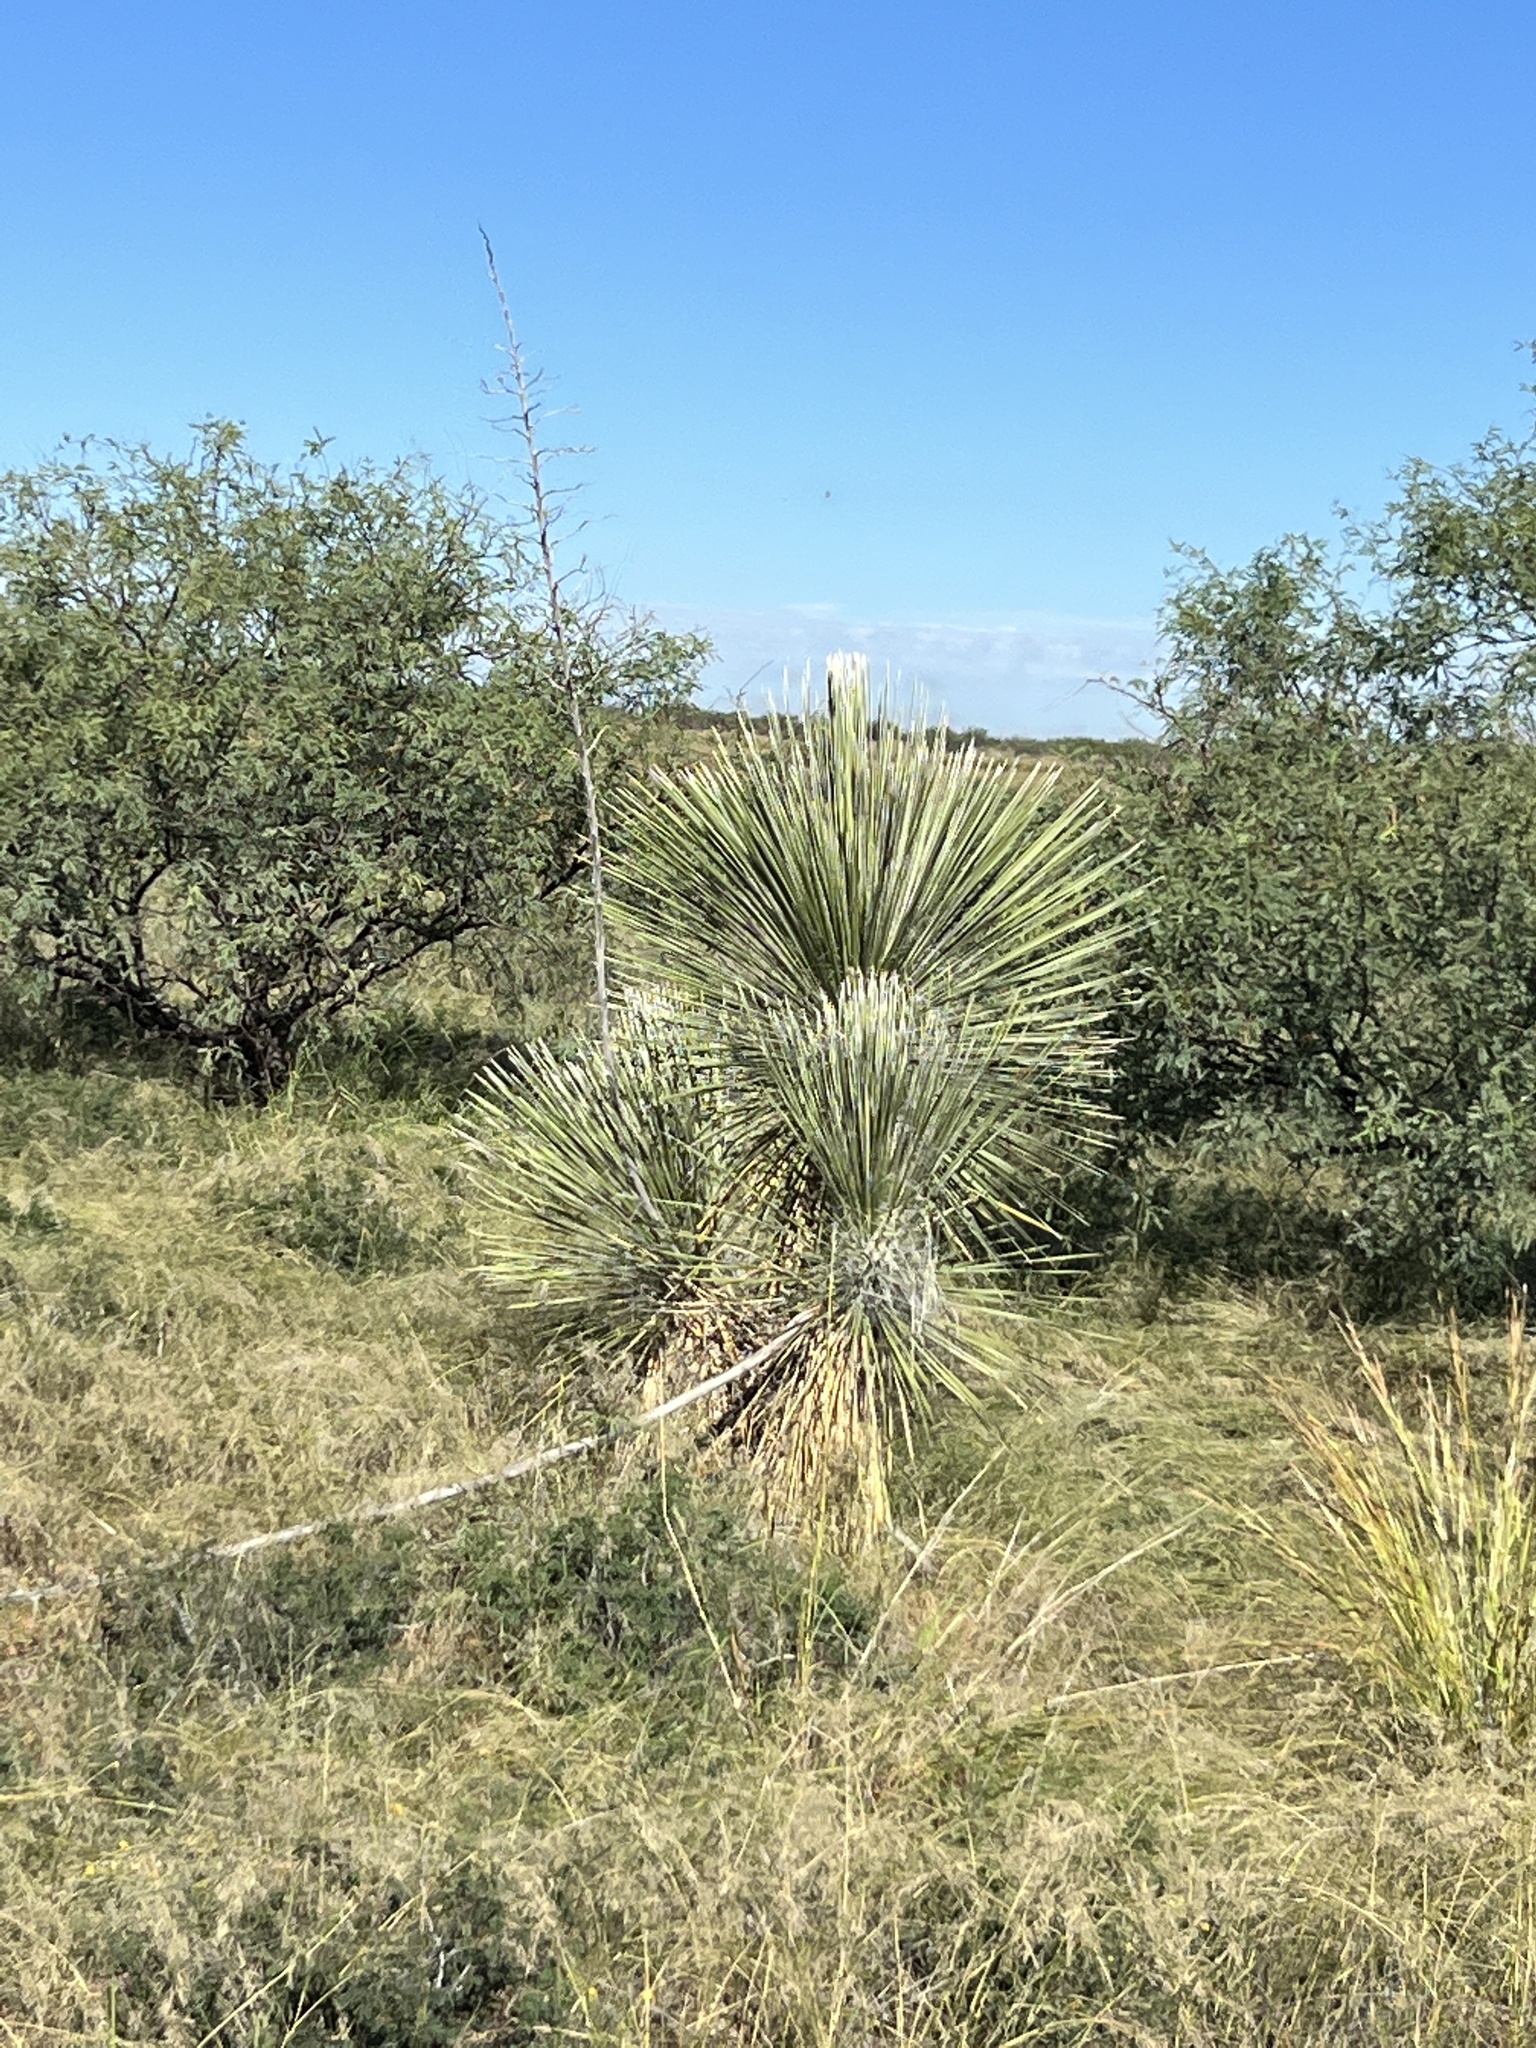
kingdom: Plantae
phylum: Tracheophyta
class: Liliopsida
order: Asparagales
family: Asparagaceae
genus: Yucca
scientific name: Yucca elata
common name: Palmella
